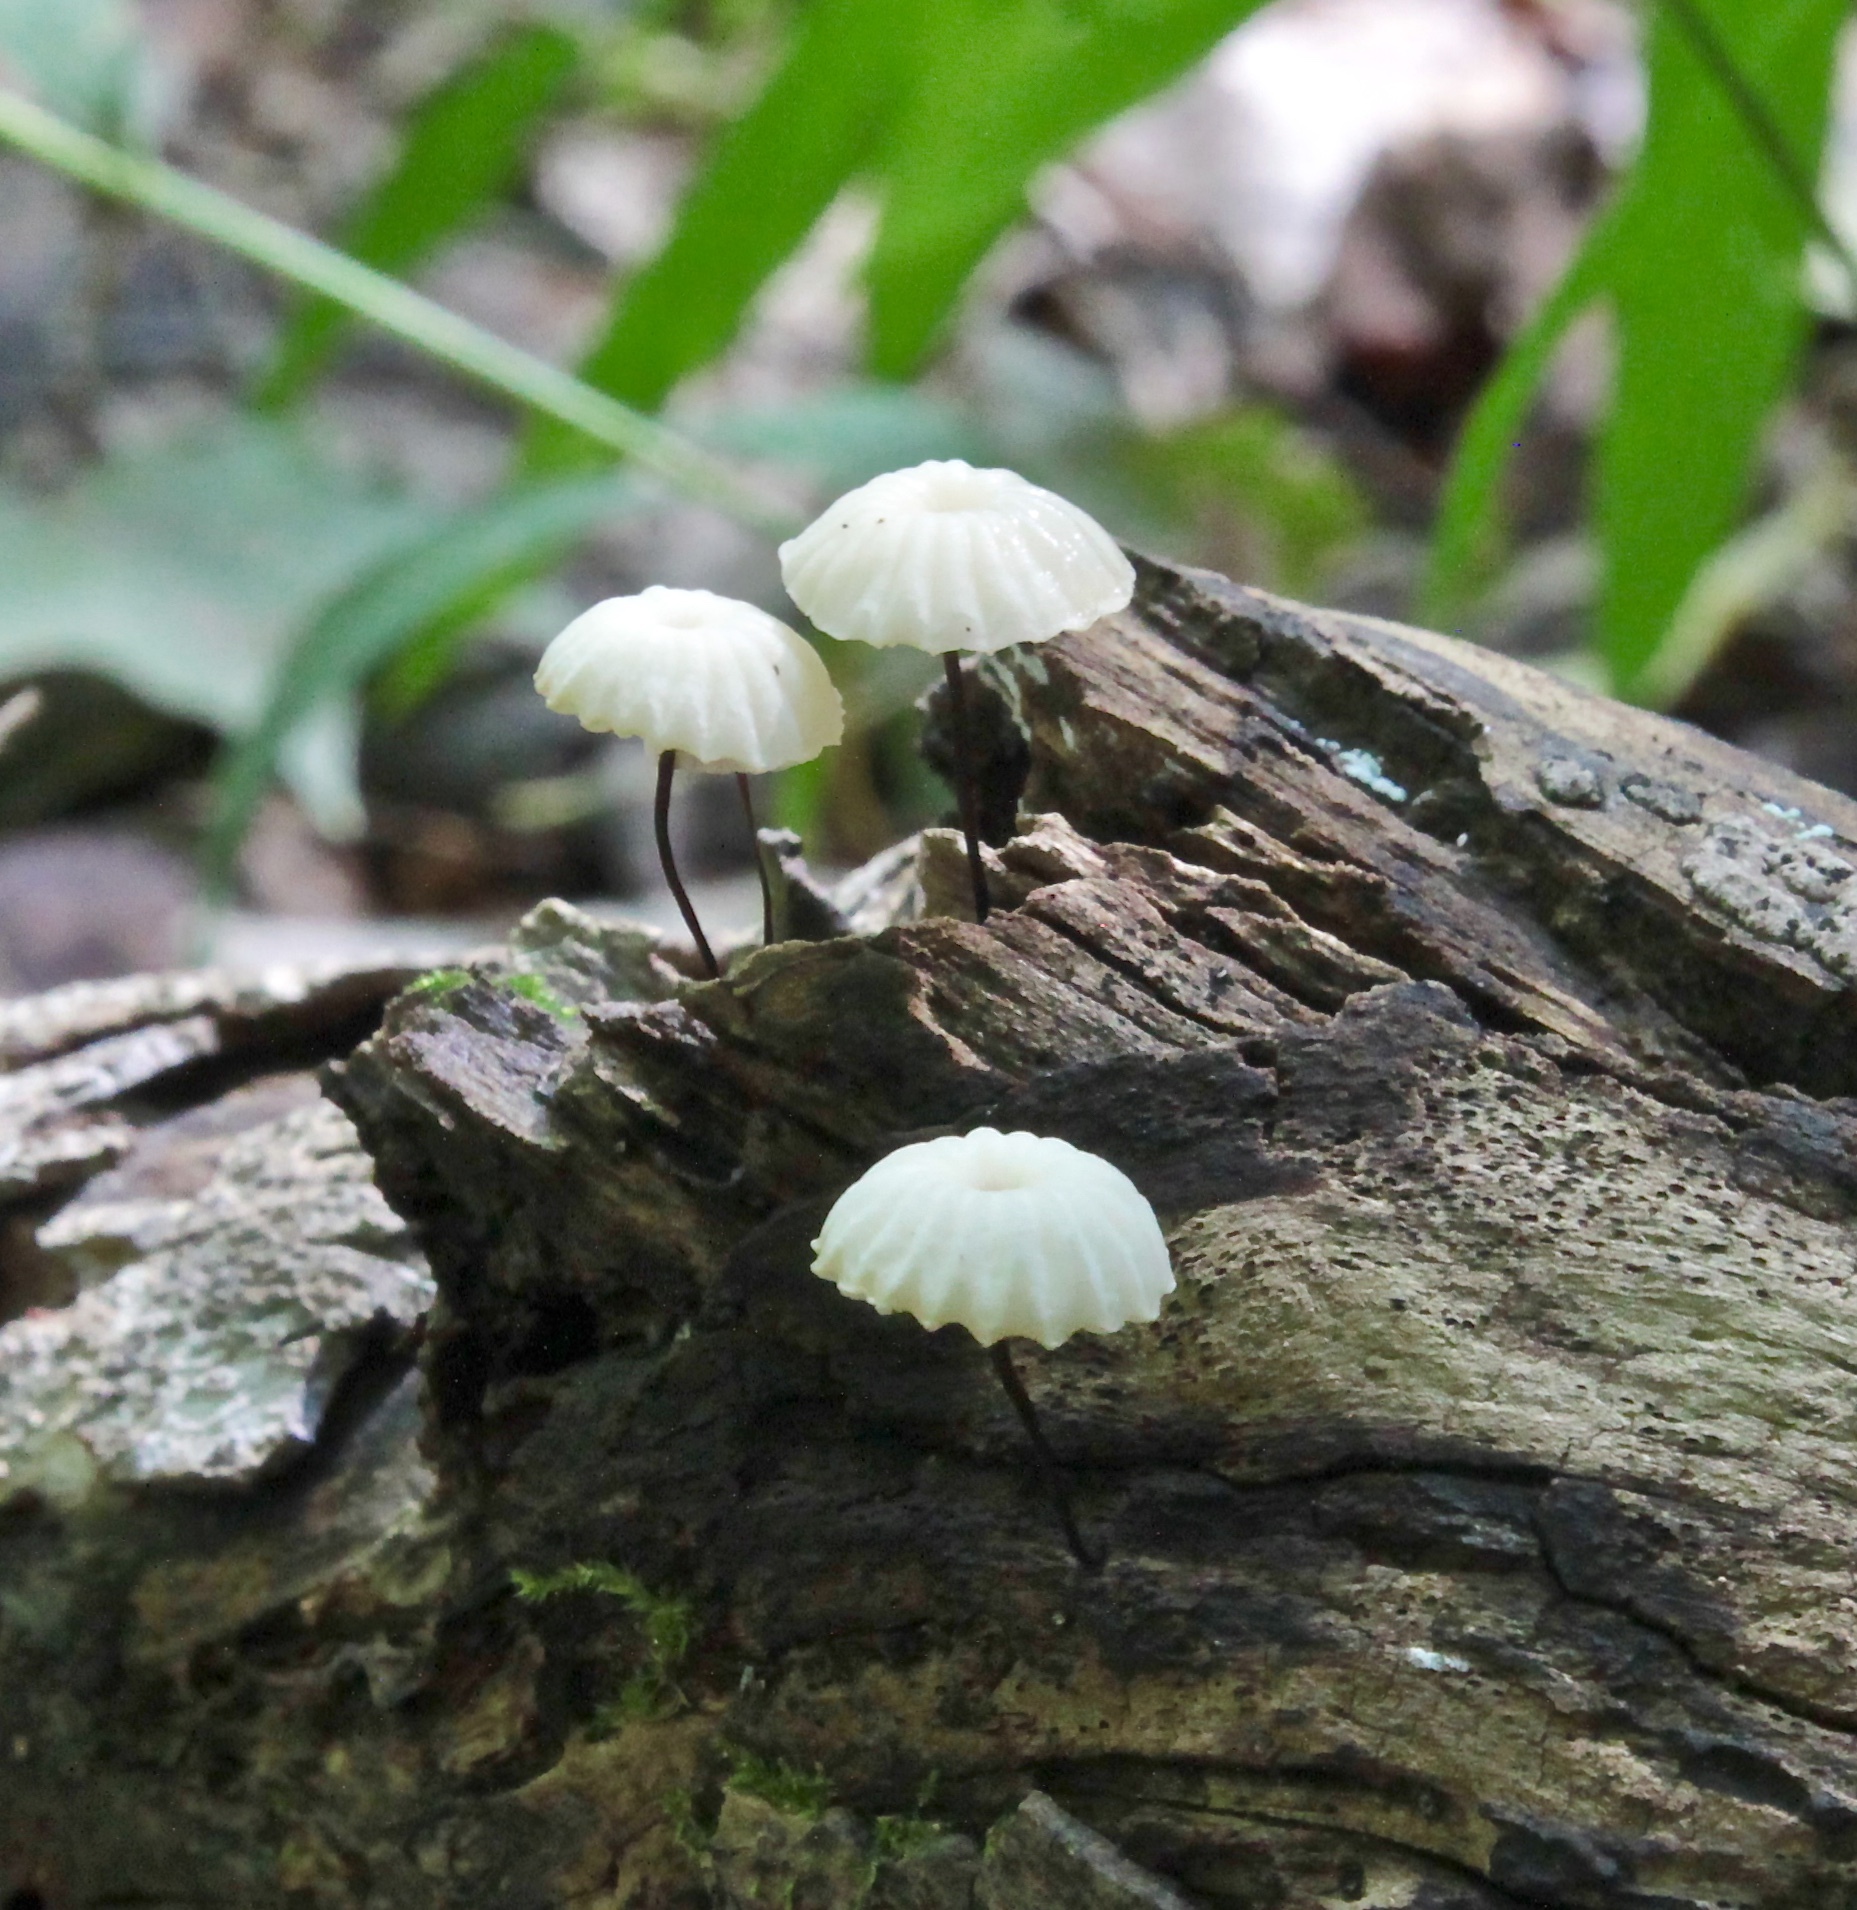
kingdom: Fungi
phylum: Basidiomycota
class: Agaricomycetes
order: Agaricales
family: Marasmiaceae
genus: Marasmius
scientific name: Marasmius rotula
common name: Collared parachute
